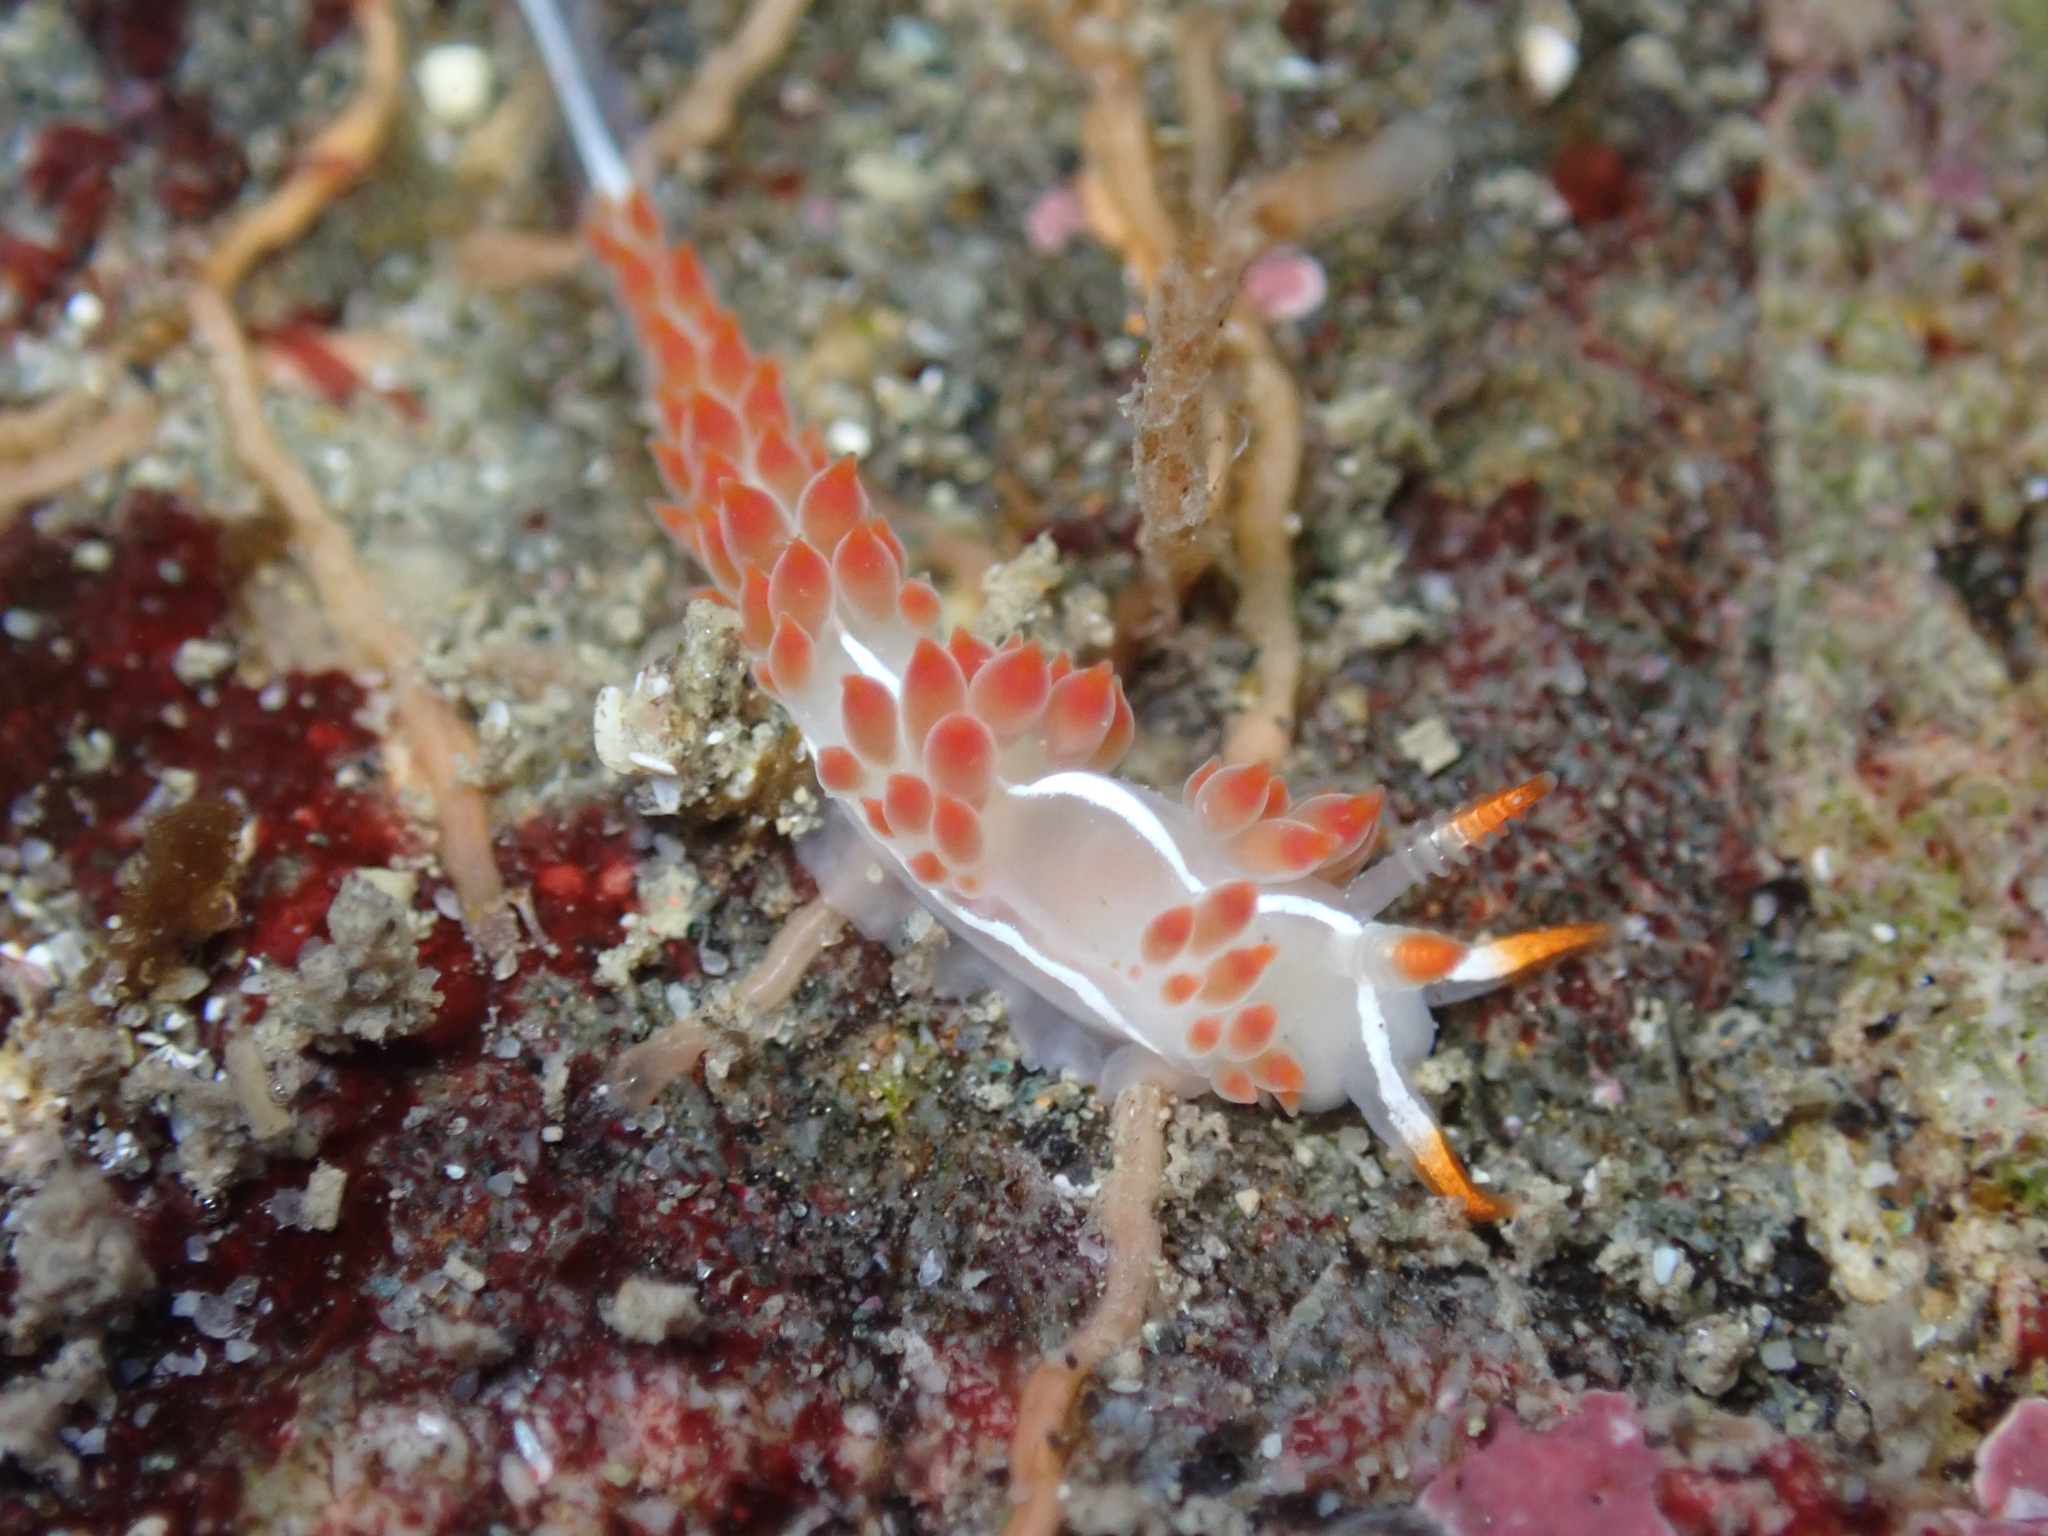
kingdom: Animalia
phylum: Mollusca
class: Gastropoda
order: Nudibranchia
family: Coryphellidae
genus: Coryphella
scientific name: Coryphella trilineata
